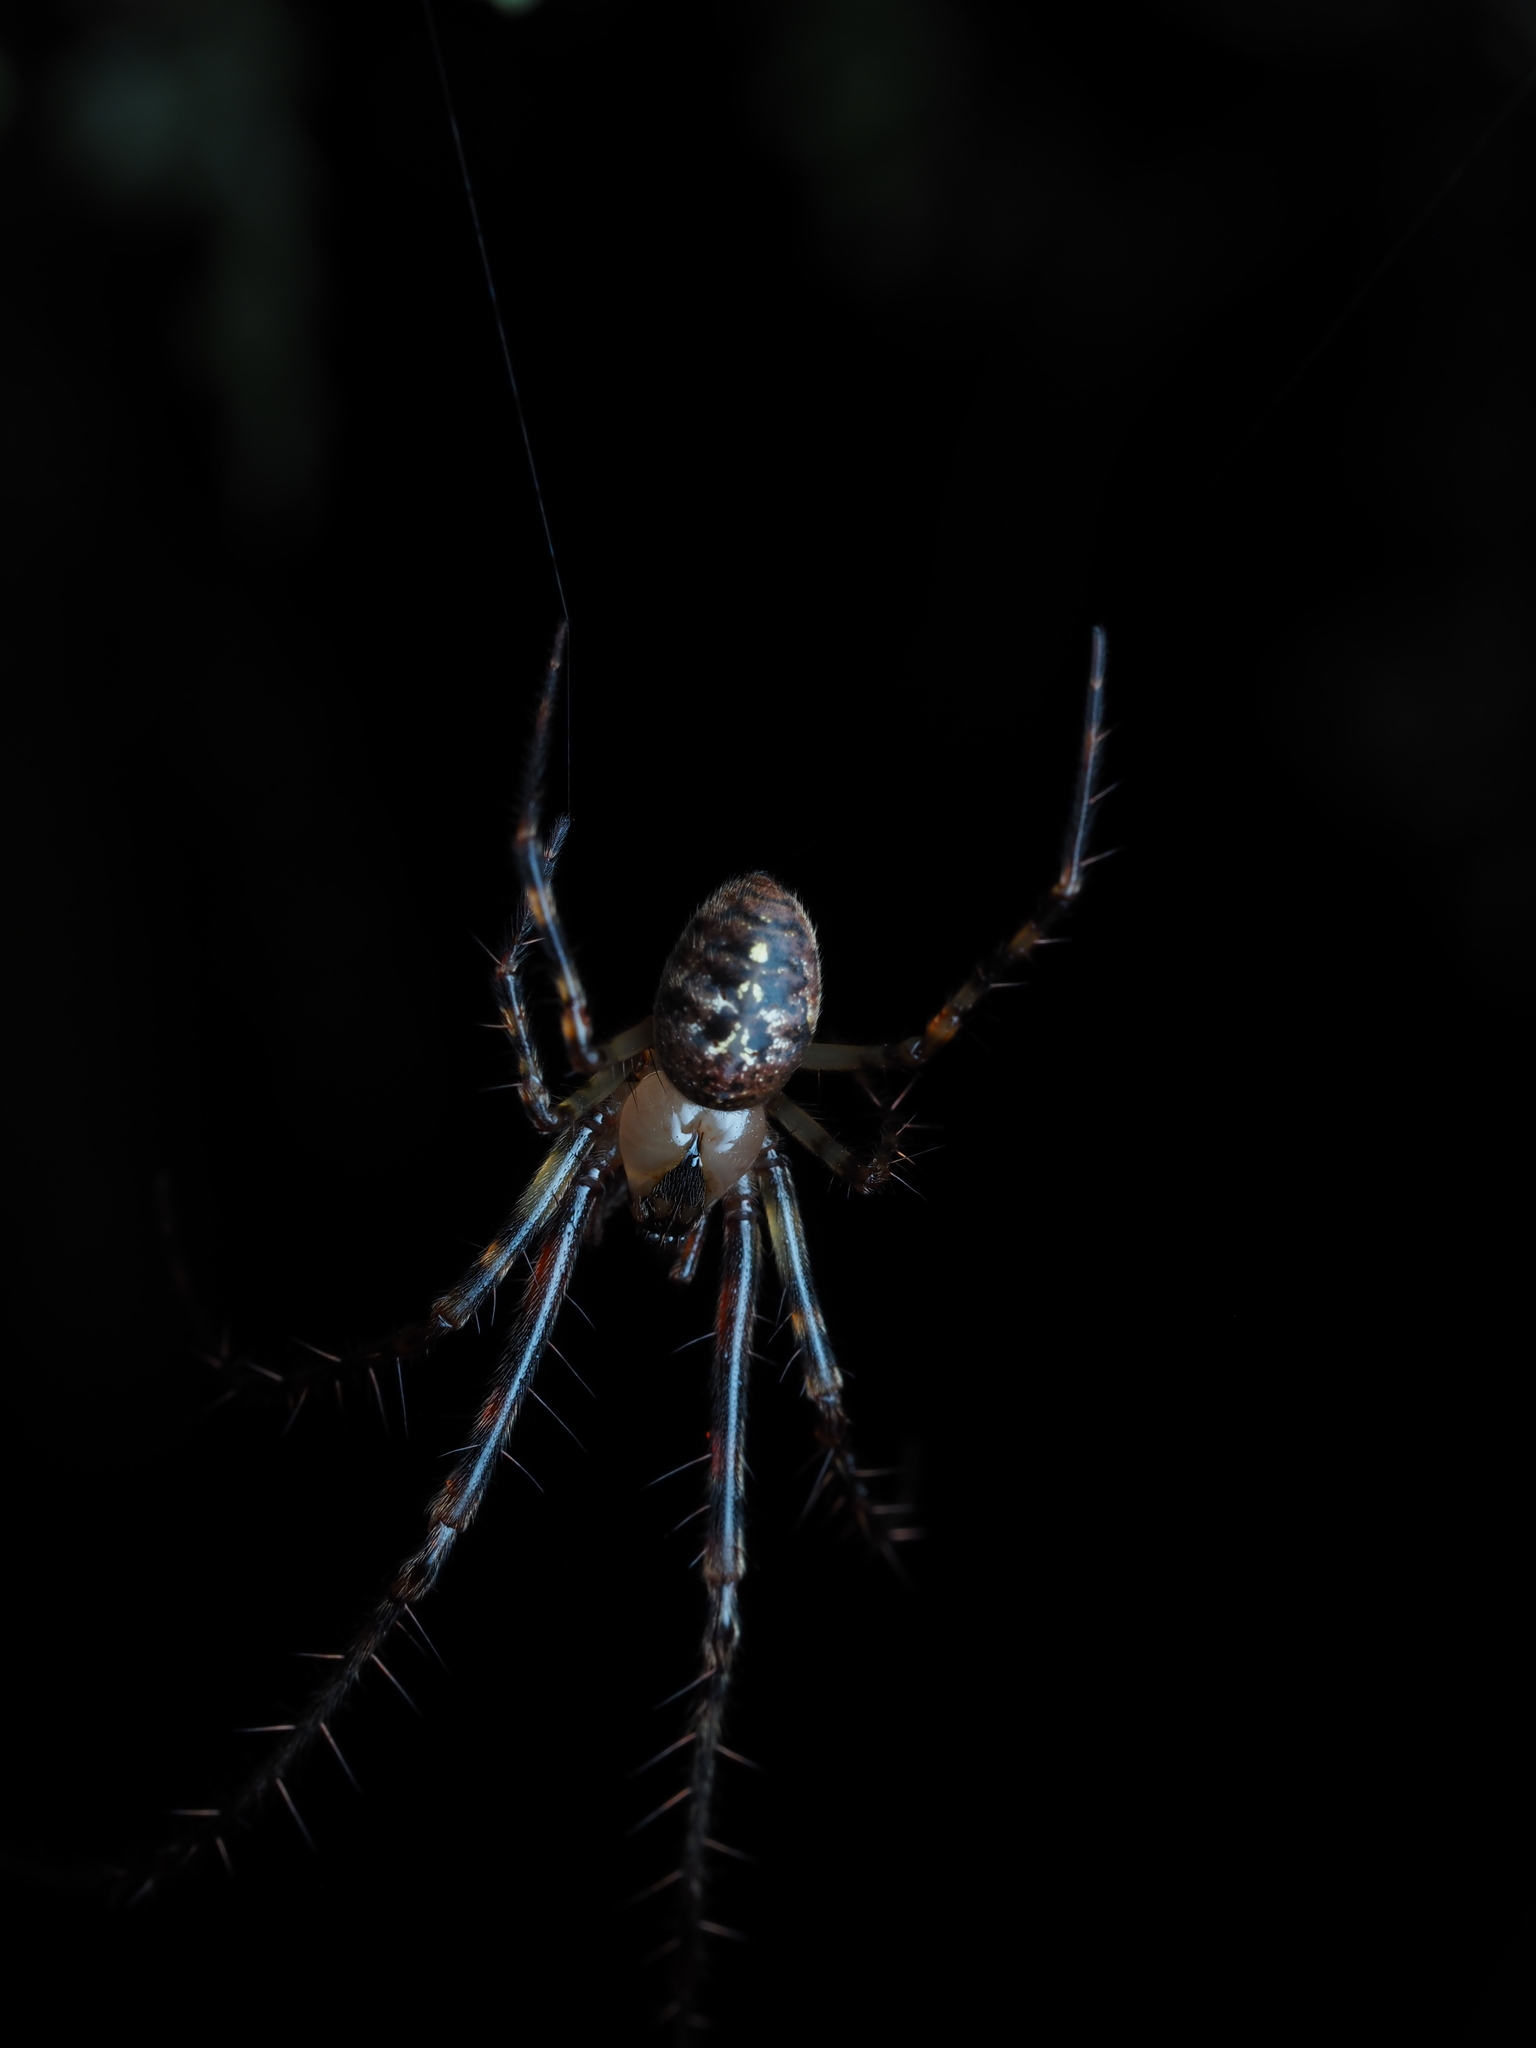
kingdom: Animalia
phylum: Arthropoda
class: Arachnida
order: Araneae
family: Tetragnathidae
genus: Tawhai
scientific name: Tawhai arborea
